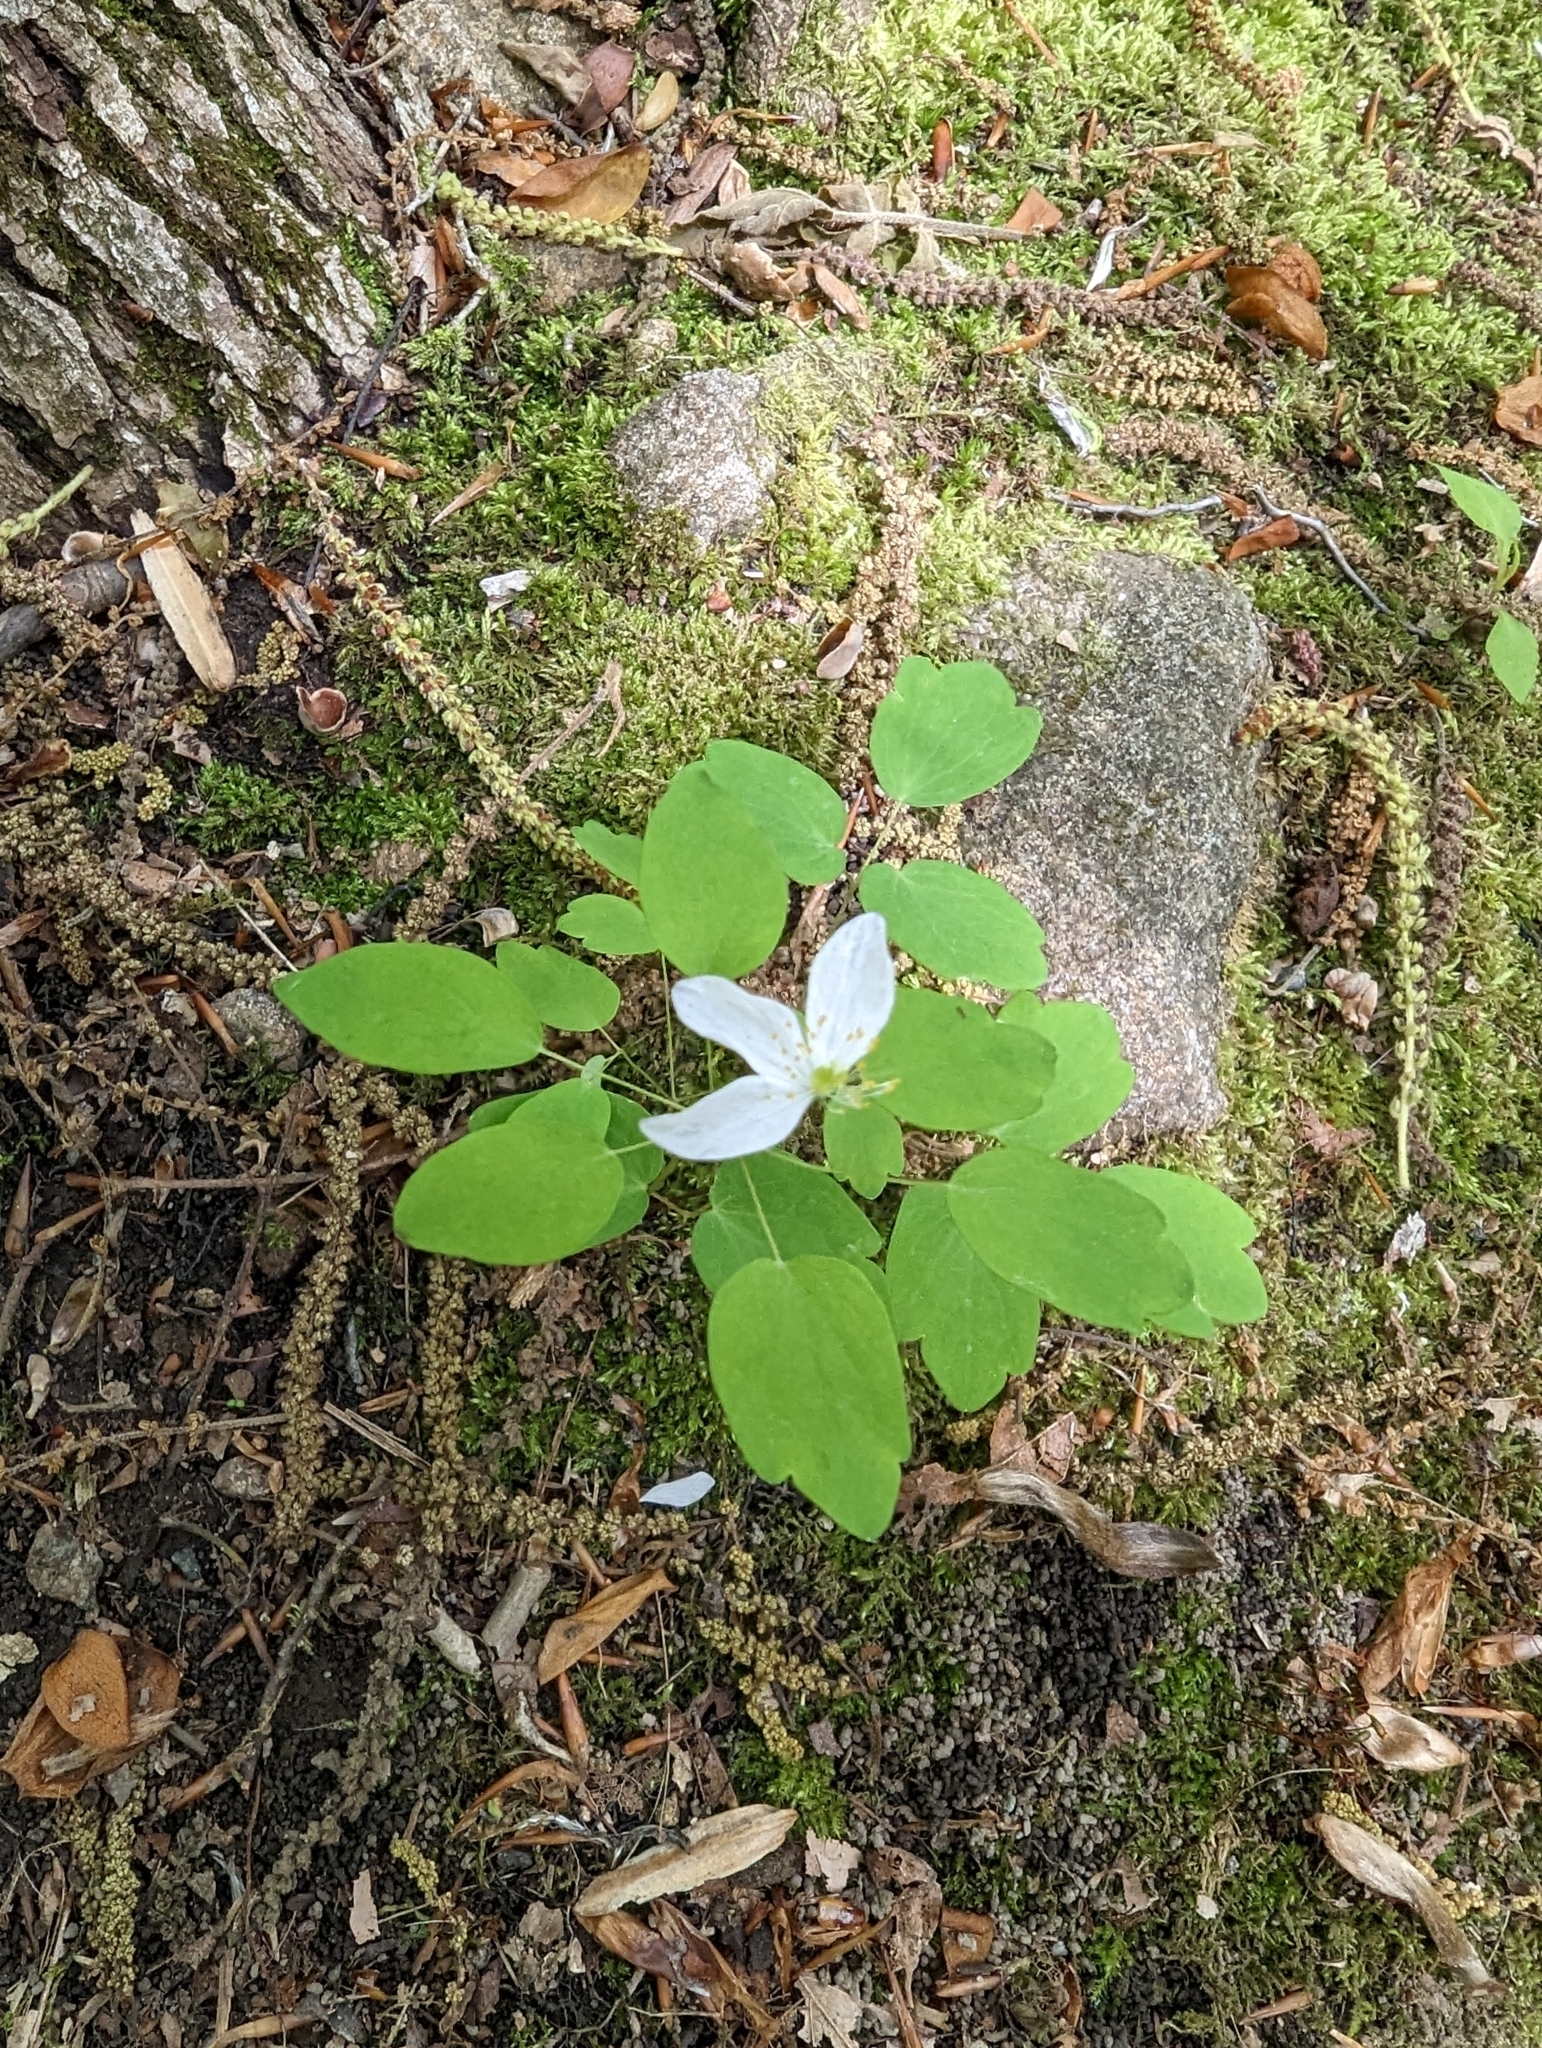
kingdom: Plantae
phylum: Tracheophyta
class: Magnoliopsida
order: Ranunculales
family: Ranunculaceae
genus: Thalictrum
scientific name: Thalictrum thalictroides
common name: Rue-anemone
